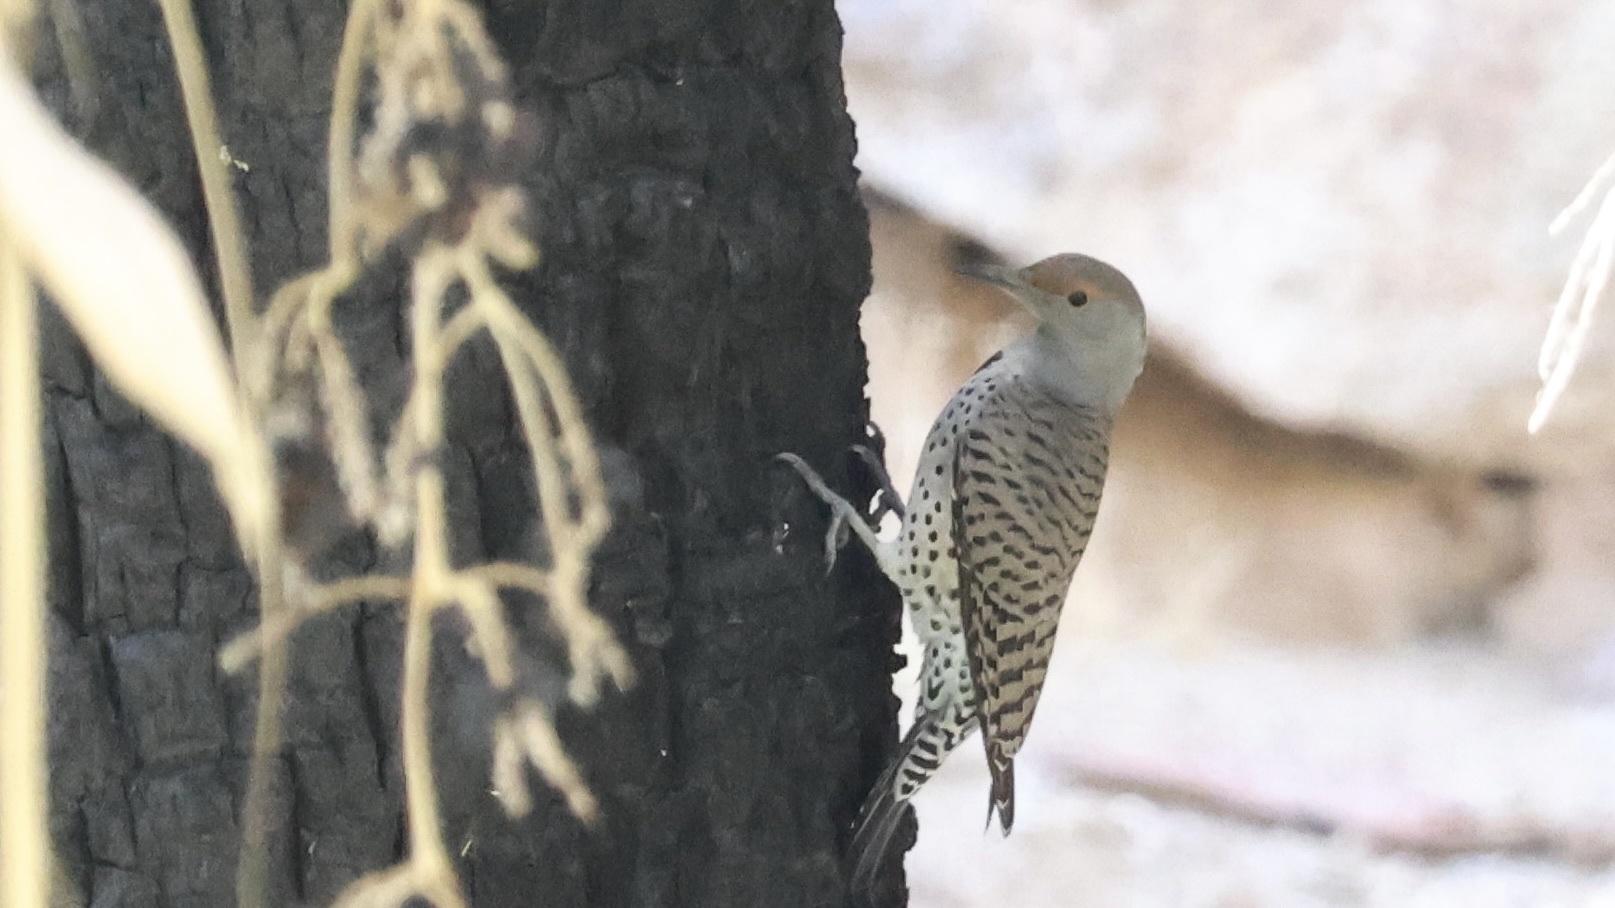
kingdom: Animalia
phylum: Chordata
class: Aves
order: Piciformes
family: Picidae
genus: Colaptes
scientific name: Colaptes auratus
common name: Northern flicker
